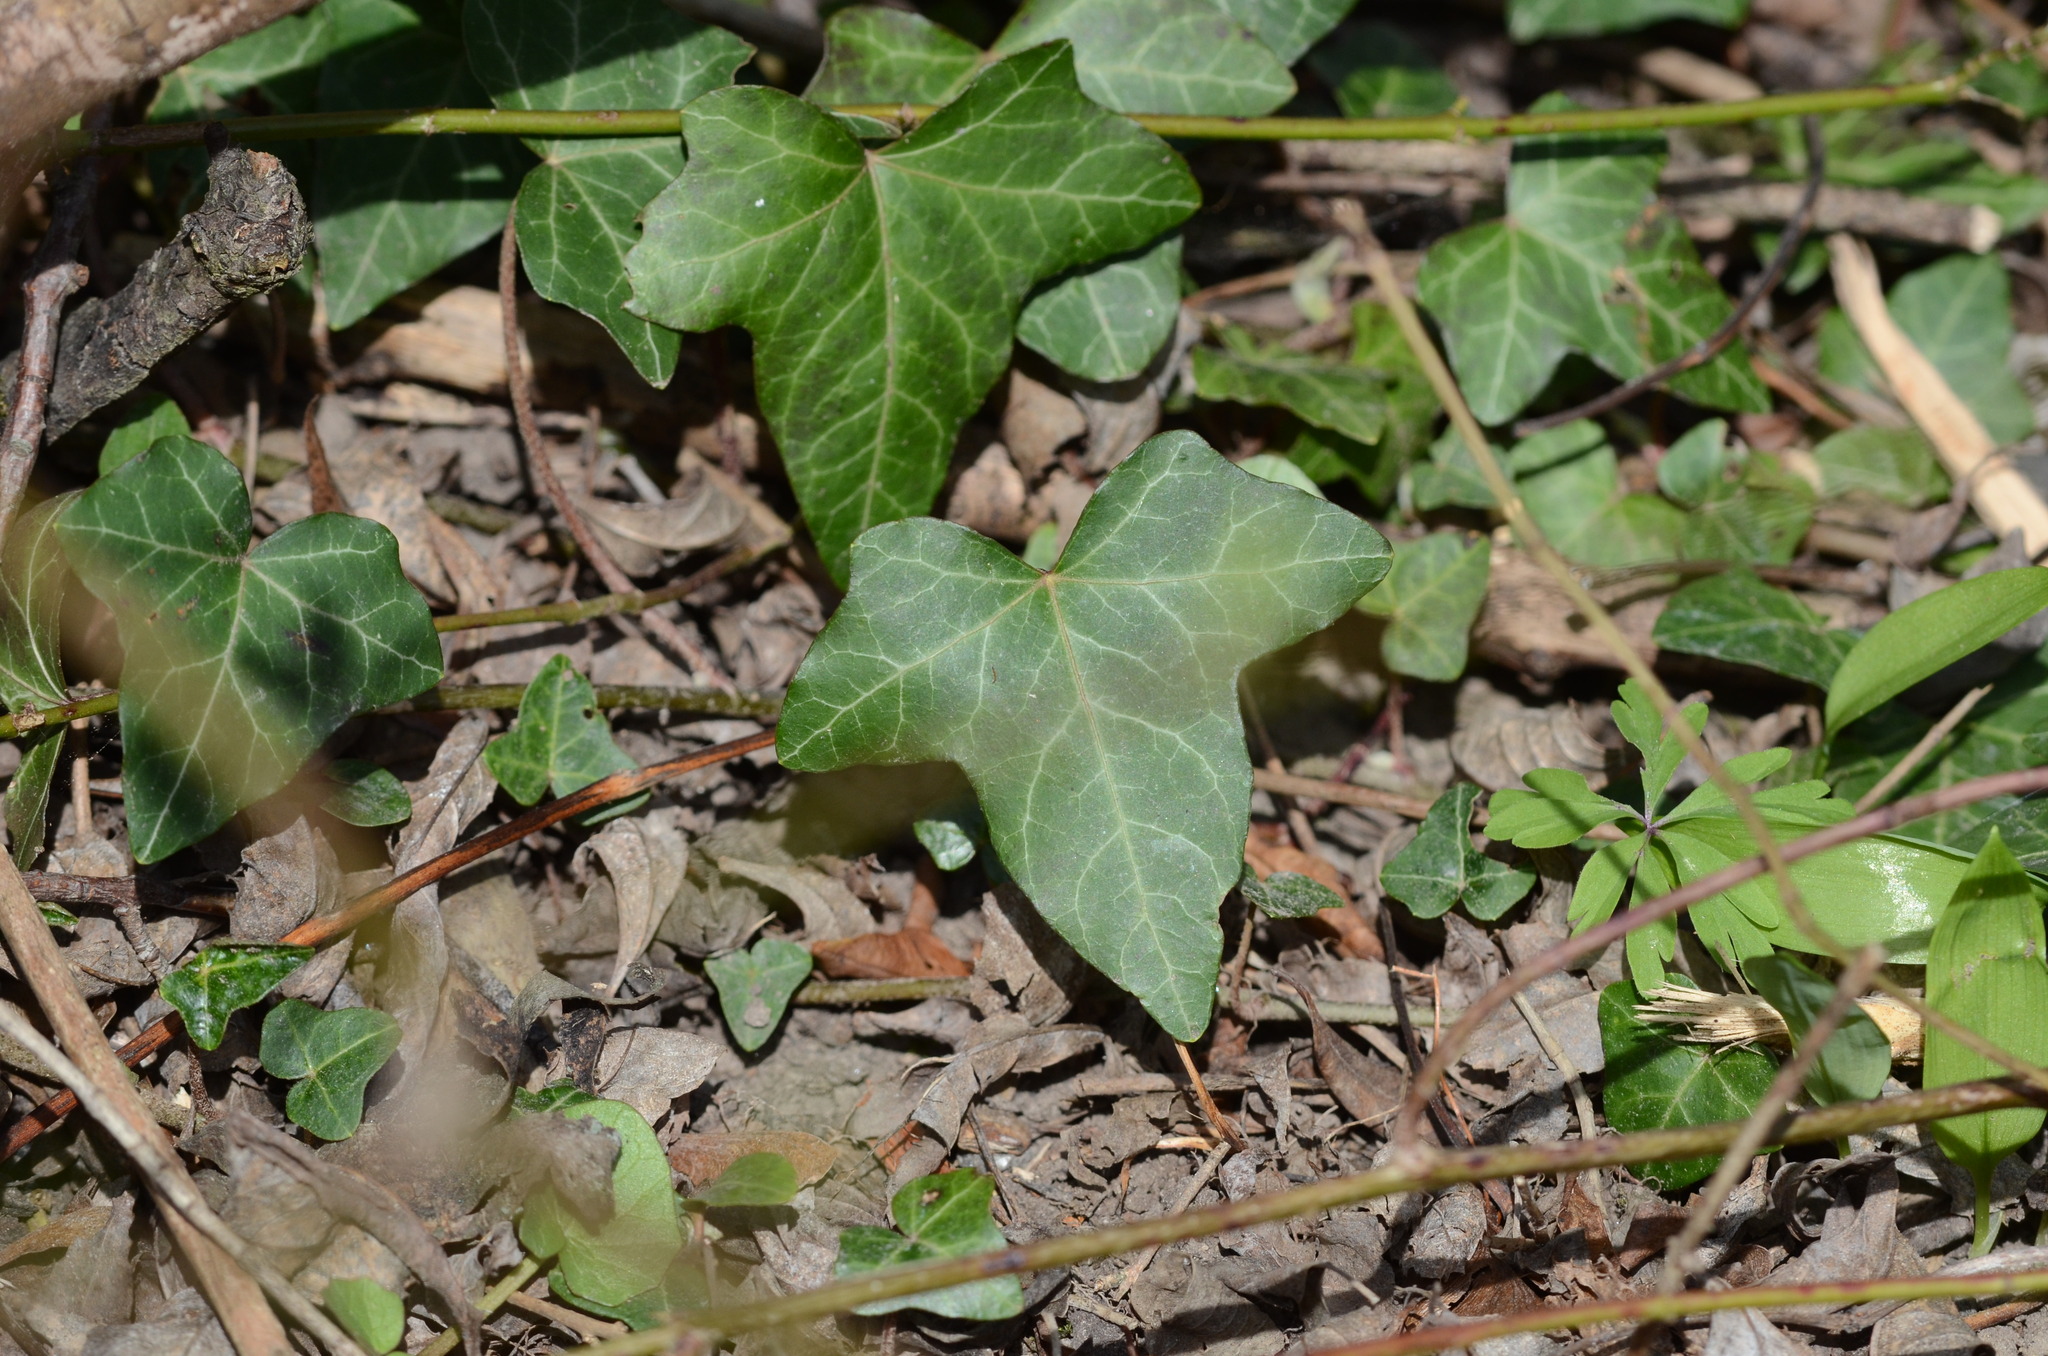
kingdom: Plantae
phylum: Tracheophyta
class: Magnoliopsida
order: Apiales
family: Araliaceae
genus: Hedera
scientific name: Hedera helix
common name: Ivy
